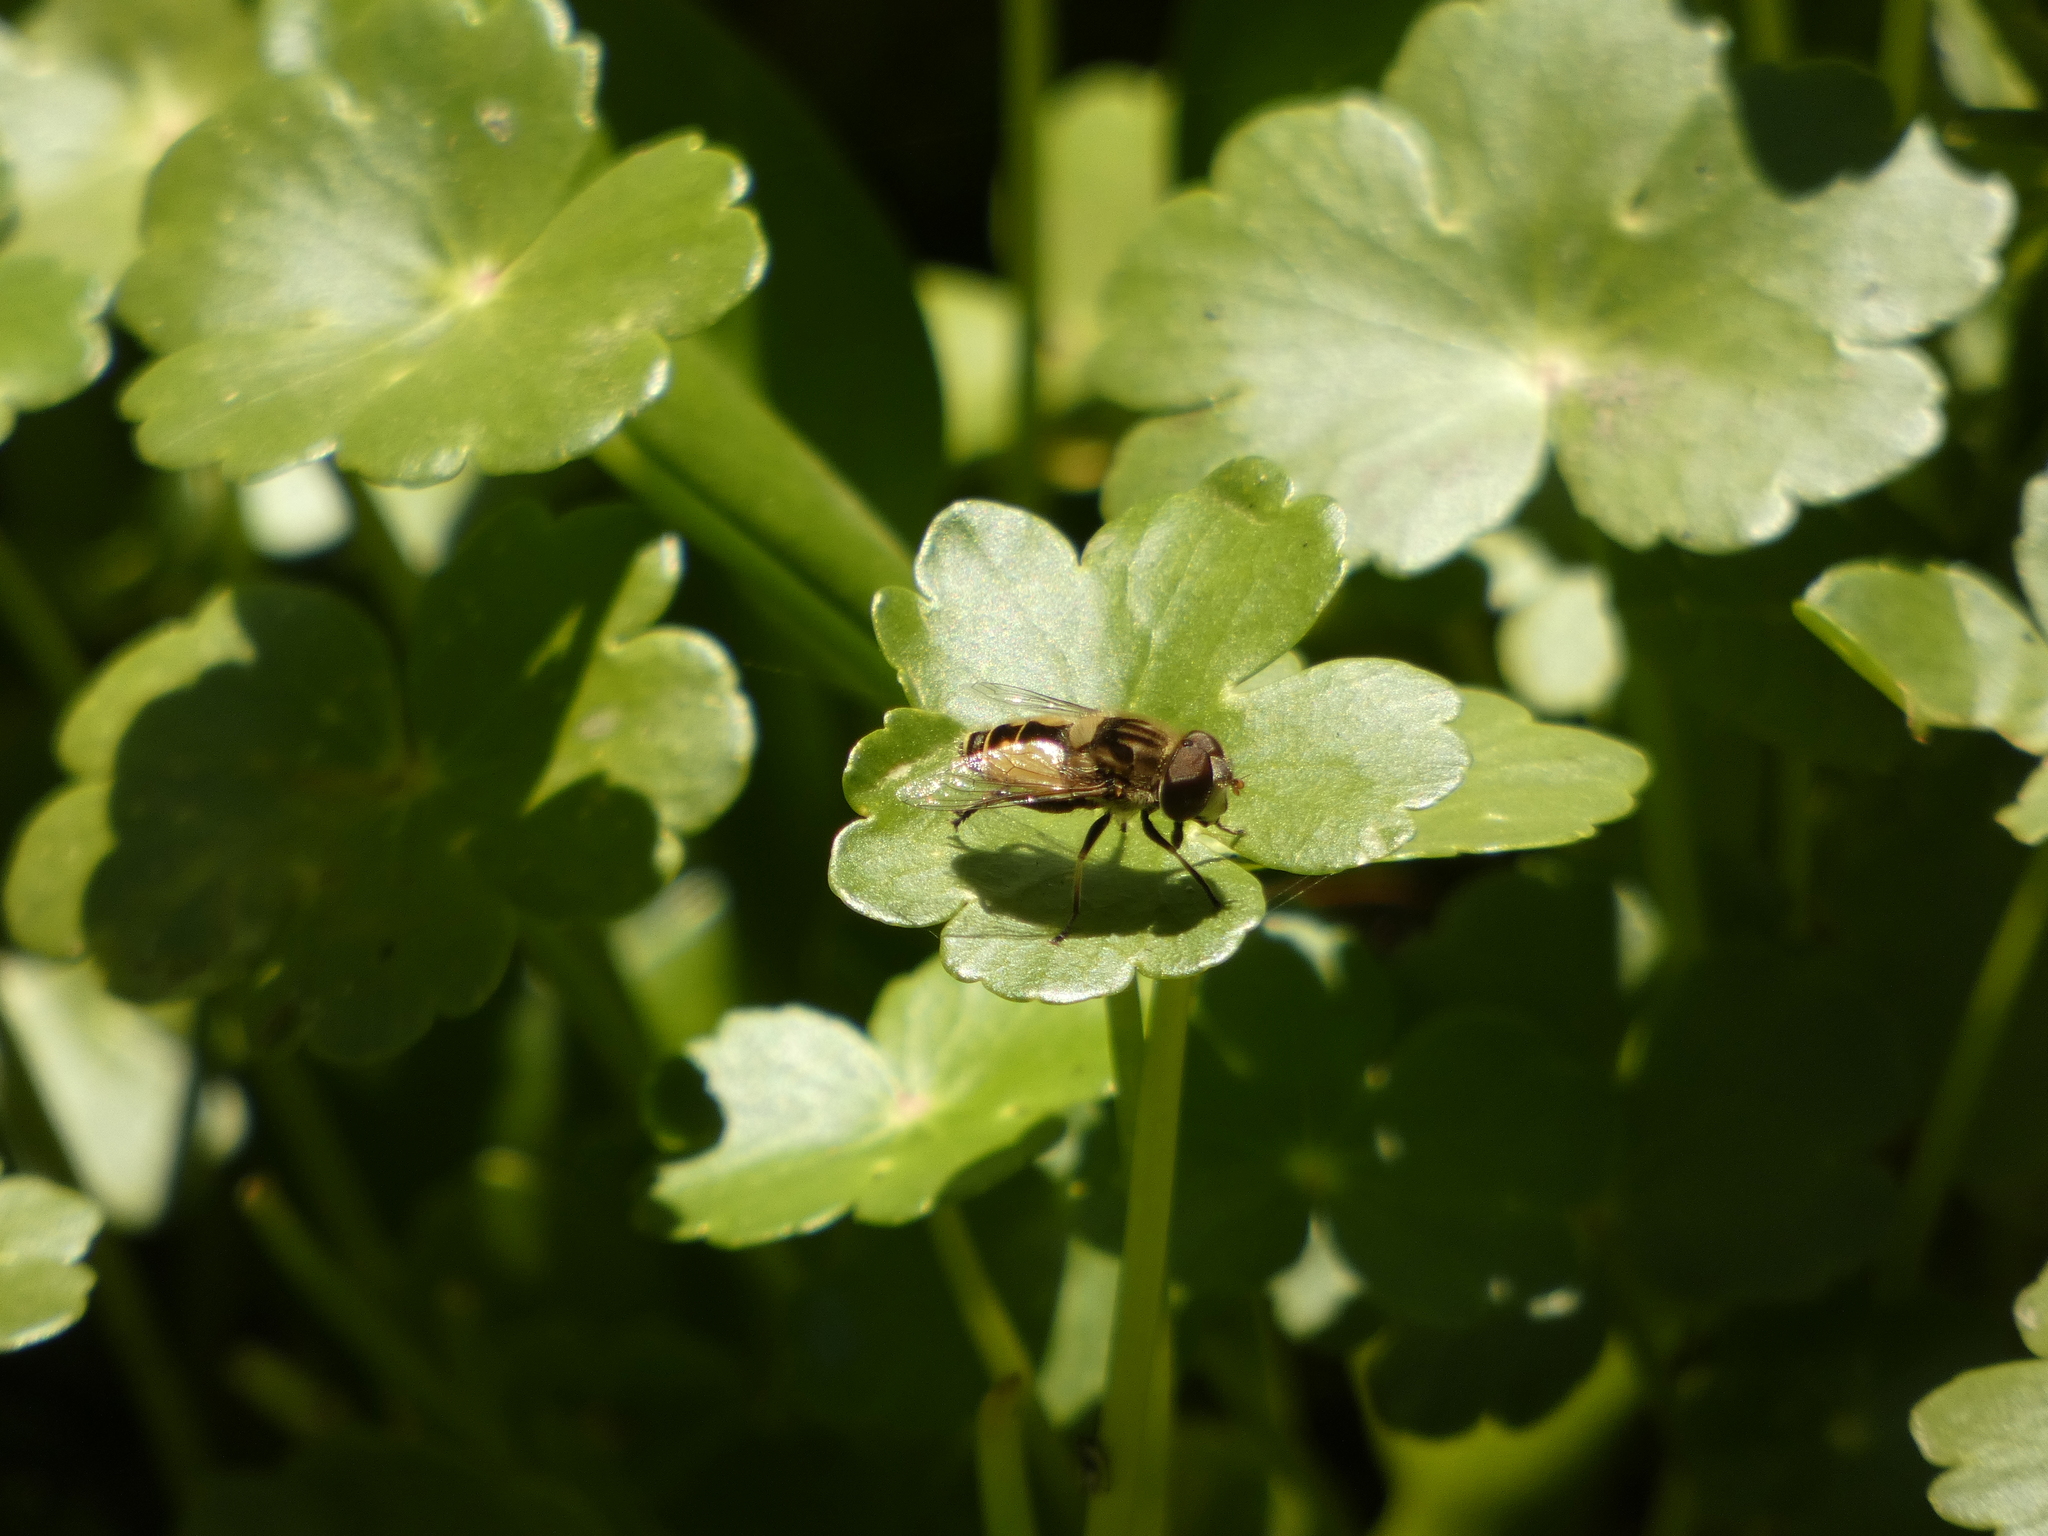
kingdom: Animalia
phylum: Arthropoda
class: Insecta
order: Diptera
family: Syrphidae
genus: Palpada
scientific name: Palpada elegans
